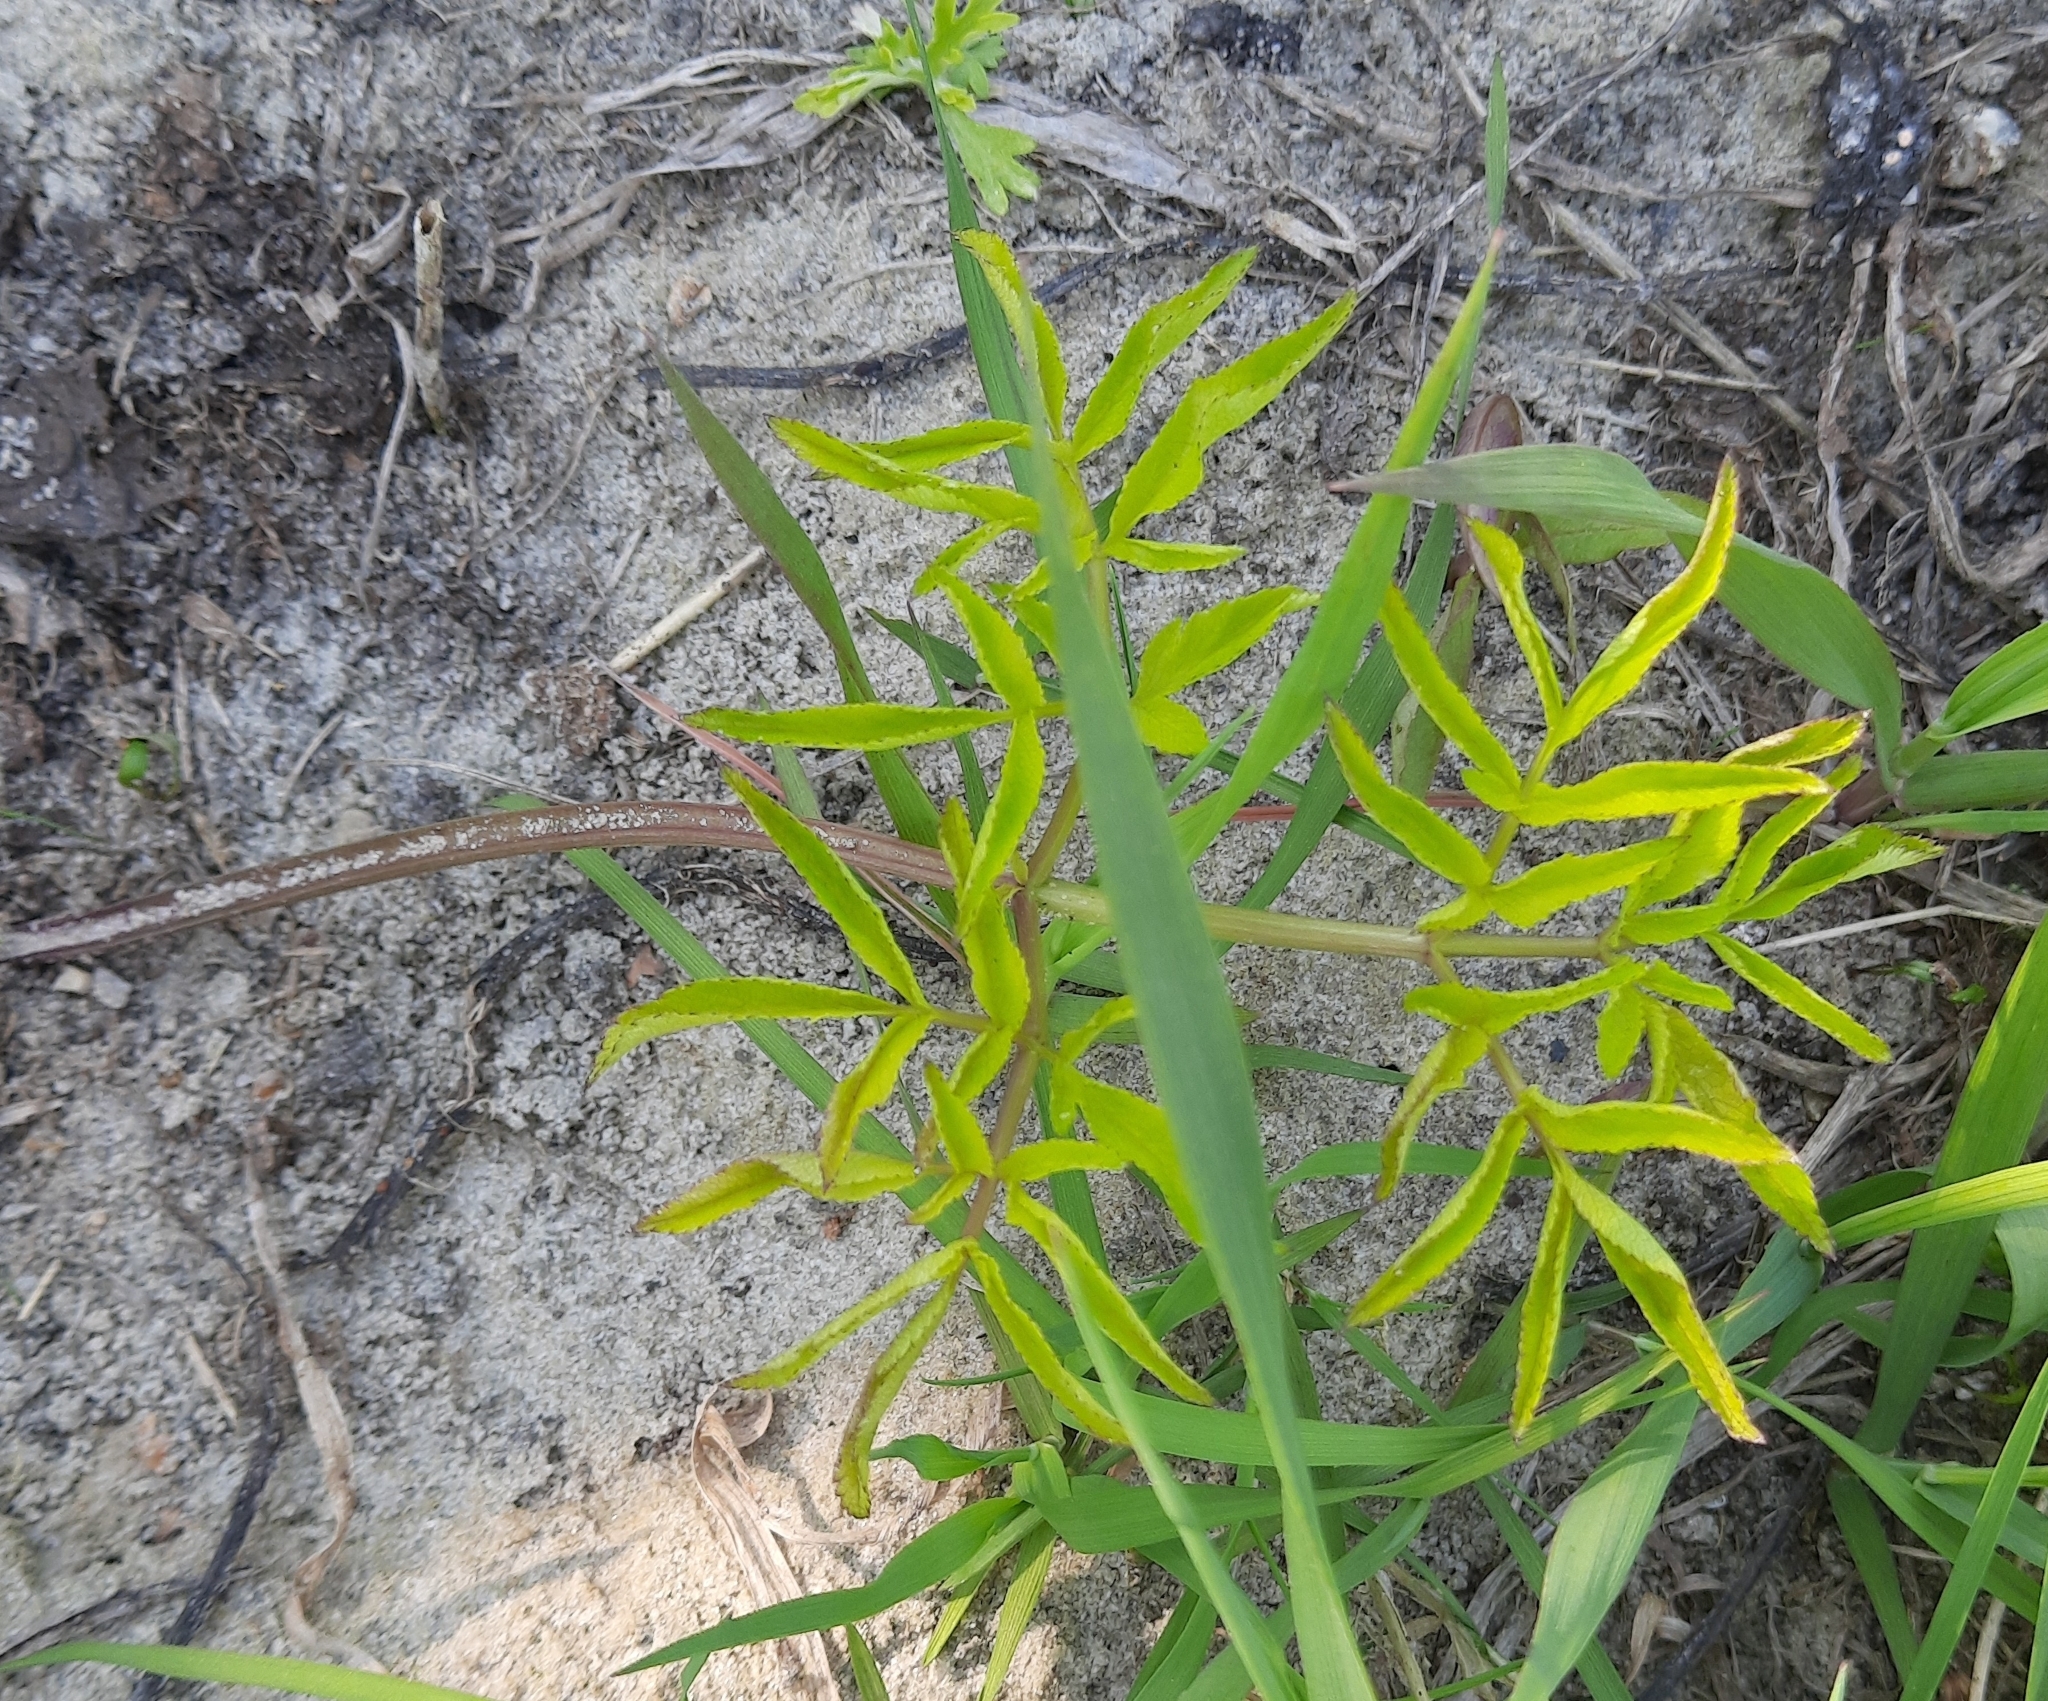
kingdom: Plantae
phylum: Tracheophyta
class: Magnoliopsida
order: Apiales
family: Apiaceae
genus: Angelica
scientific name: Angelica sylvestris
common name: Wild angelica
